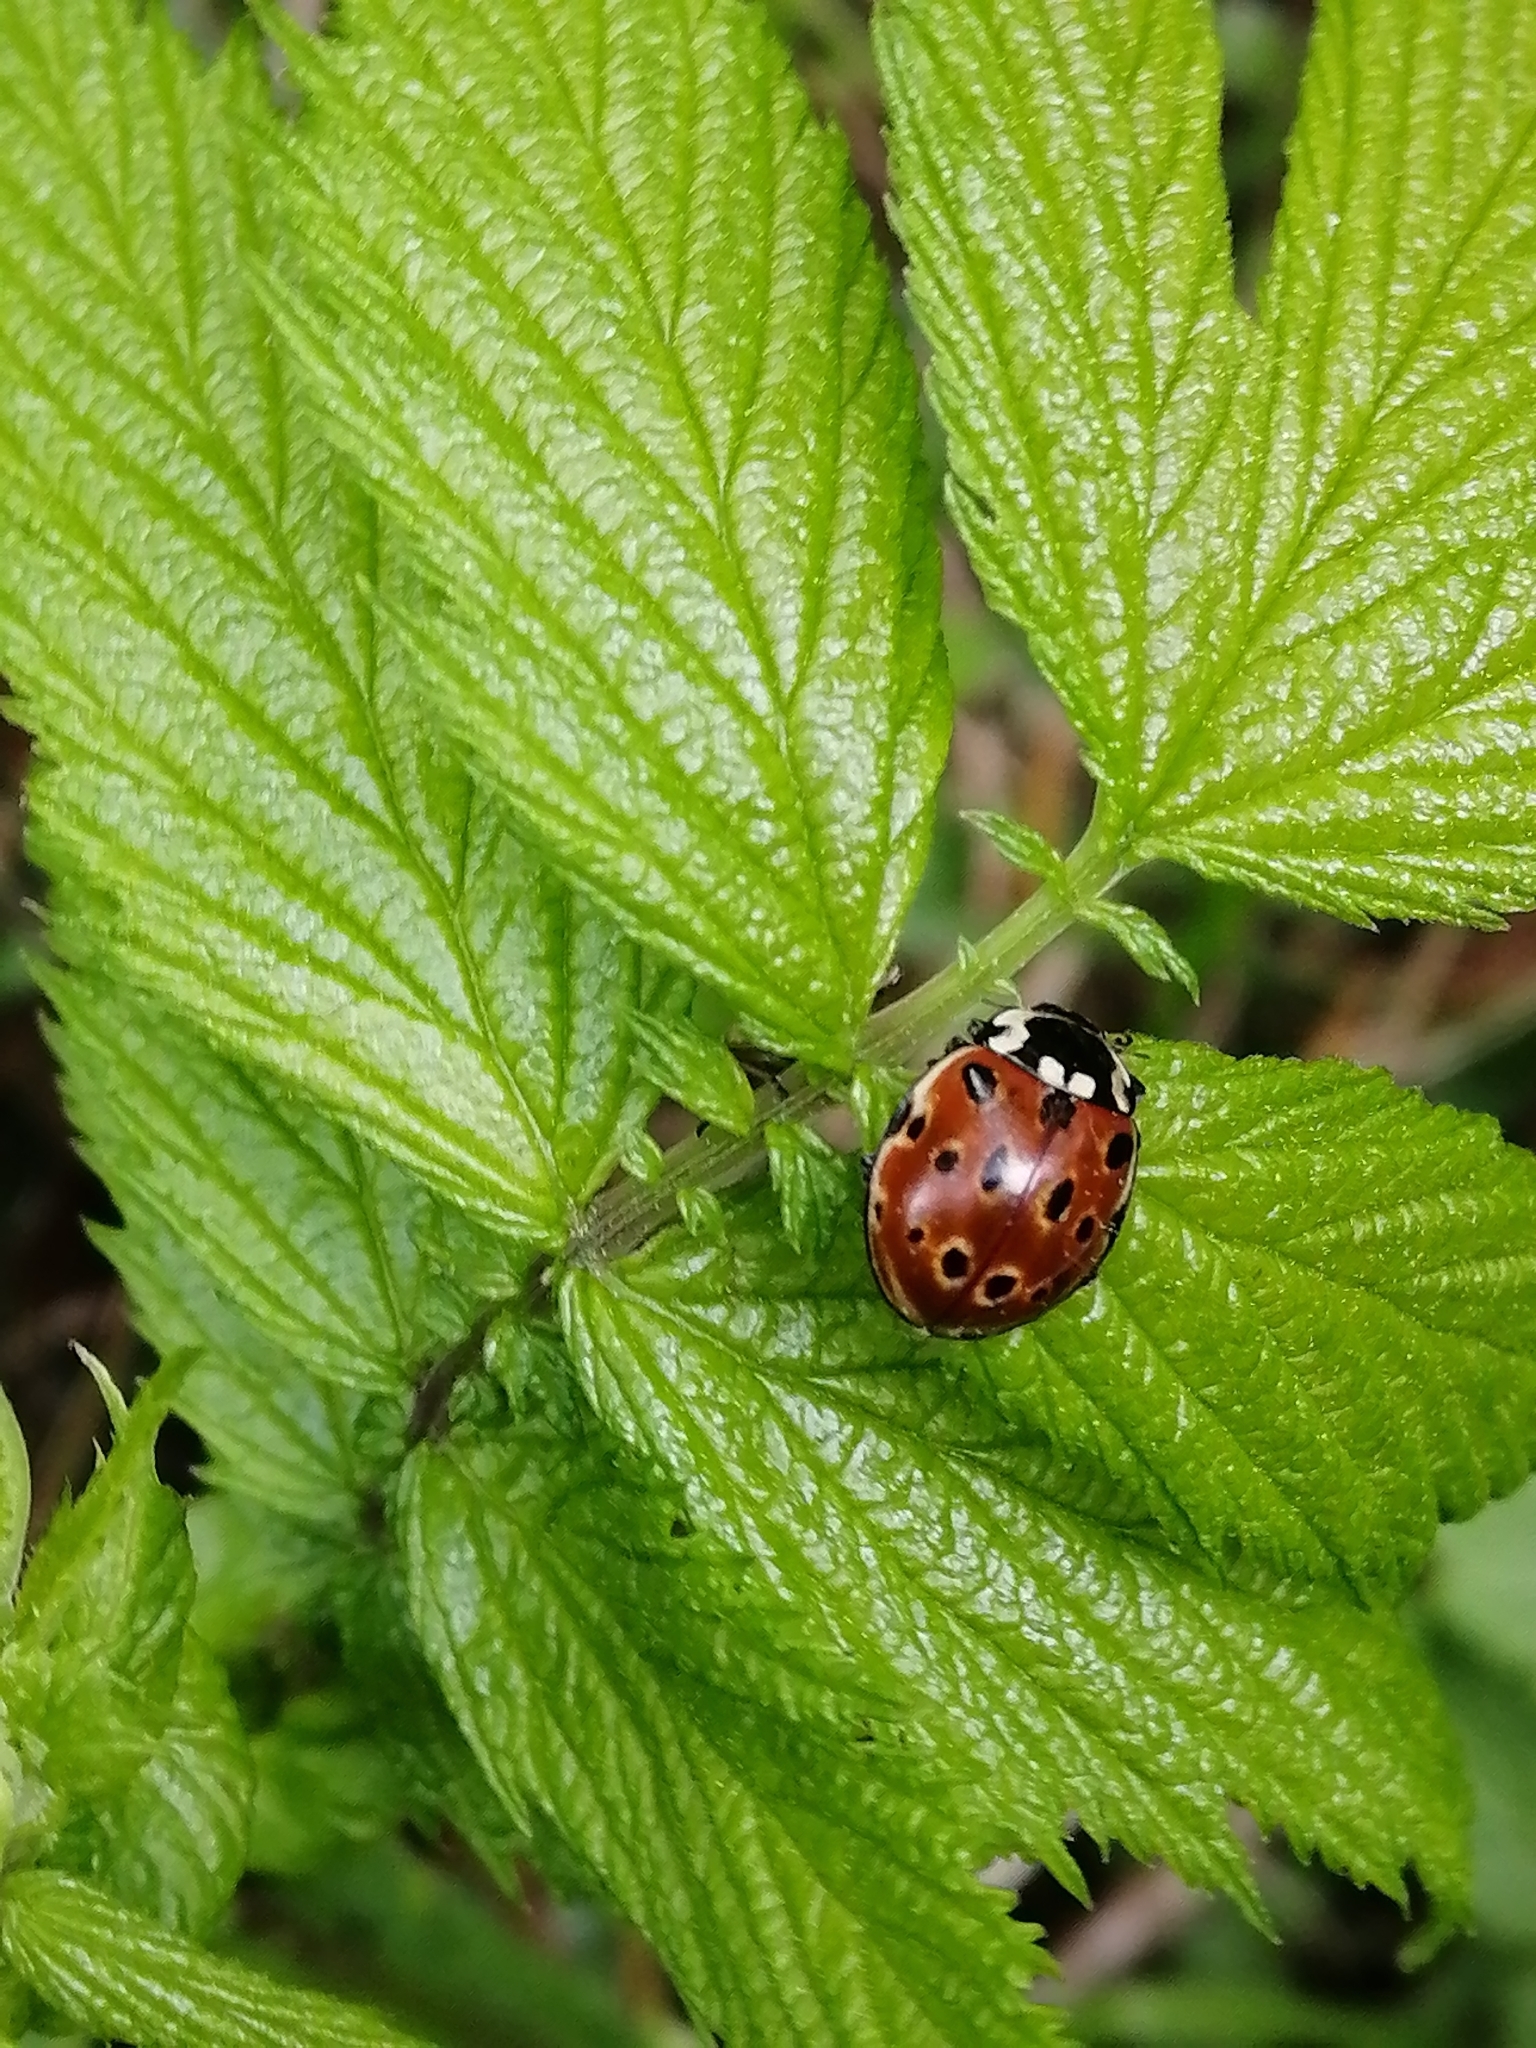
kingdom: Animalia
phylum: Arthropoda
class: Insecta
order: Coleoptera
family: Coccinellidae
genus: Anatis
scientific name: Anatis ocellata
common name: Eyed ladybird
